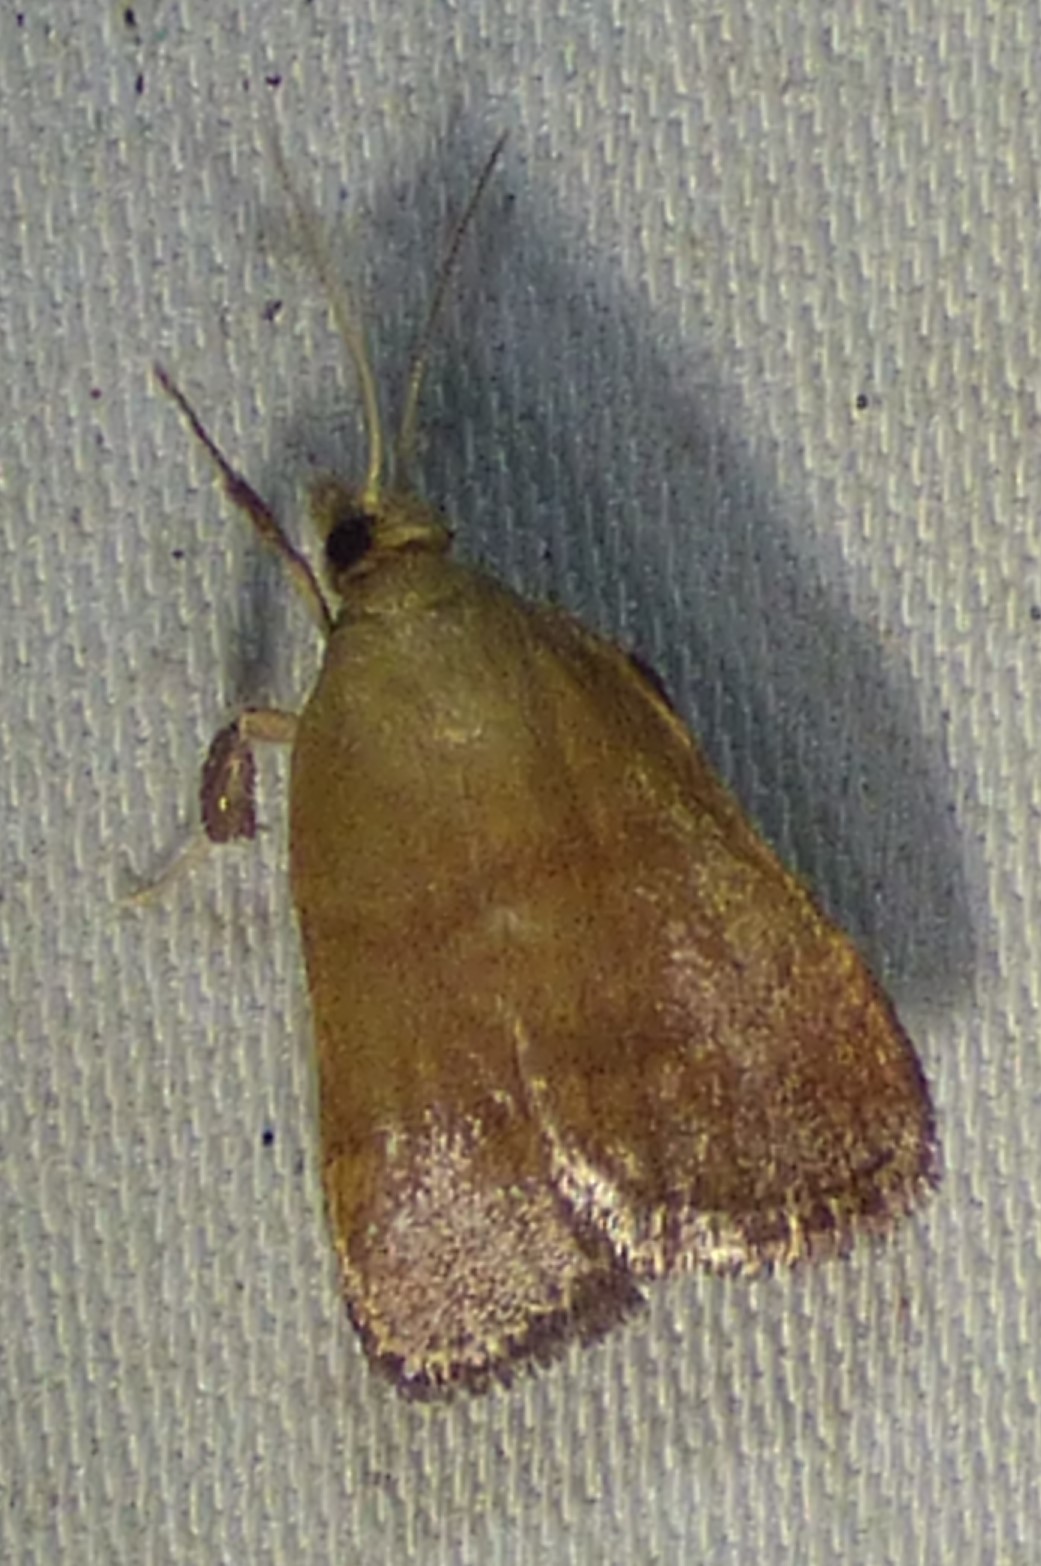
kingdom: Animalia
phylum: Arthropoda
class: Insecta
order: Lepidoptera
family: Pyralidae
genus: Condylolomia
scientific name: Condylolomia participialis
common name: Drab condylolomia moth
